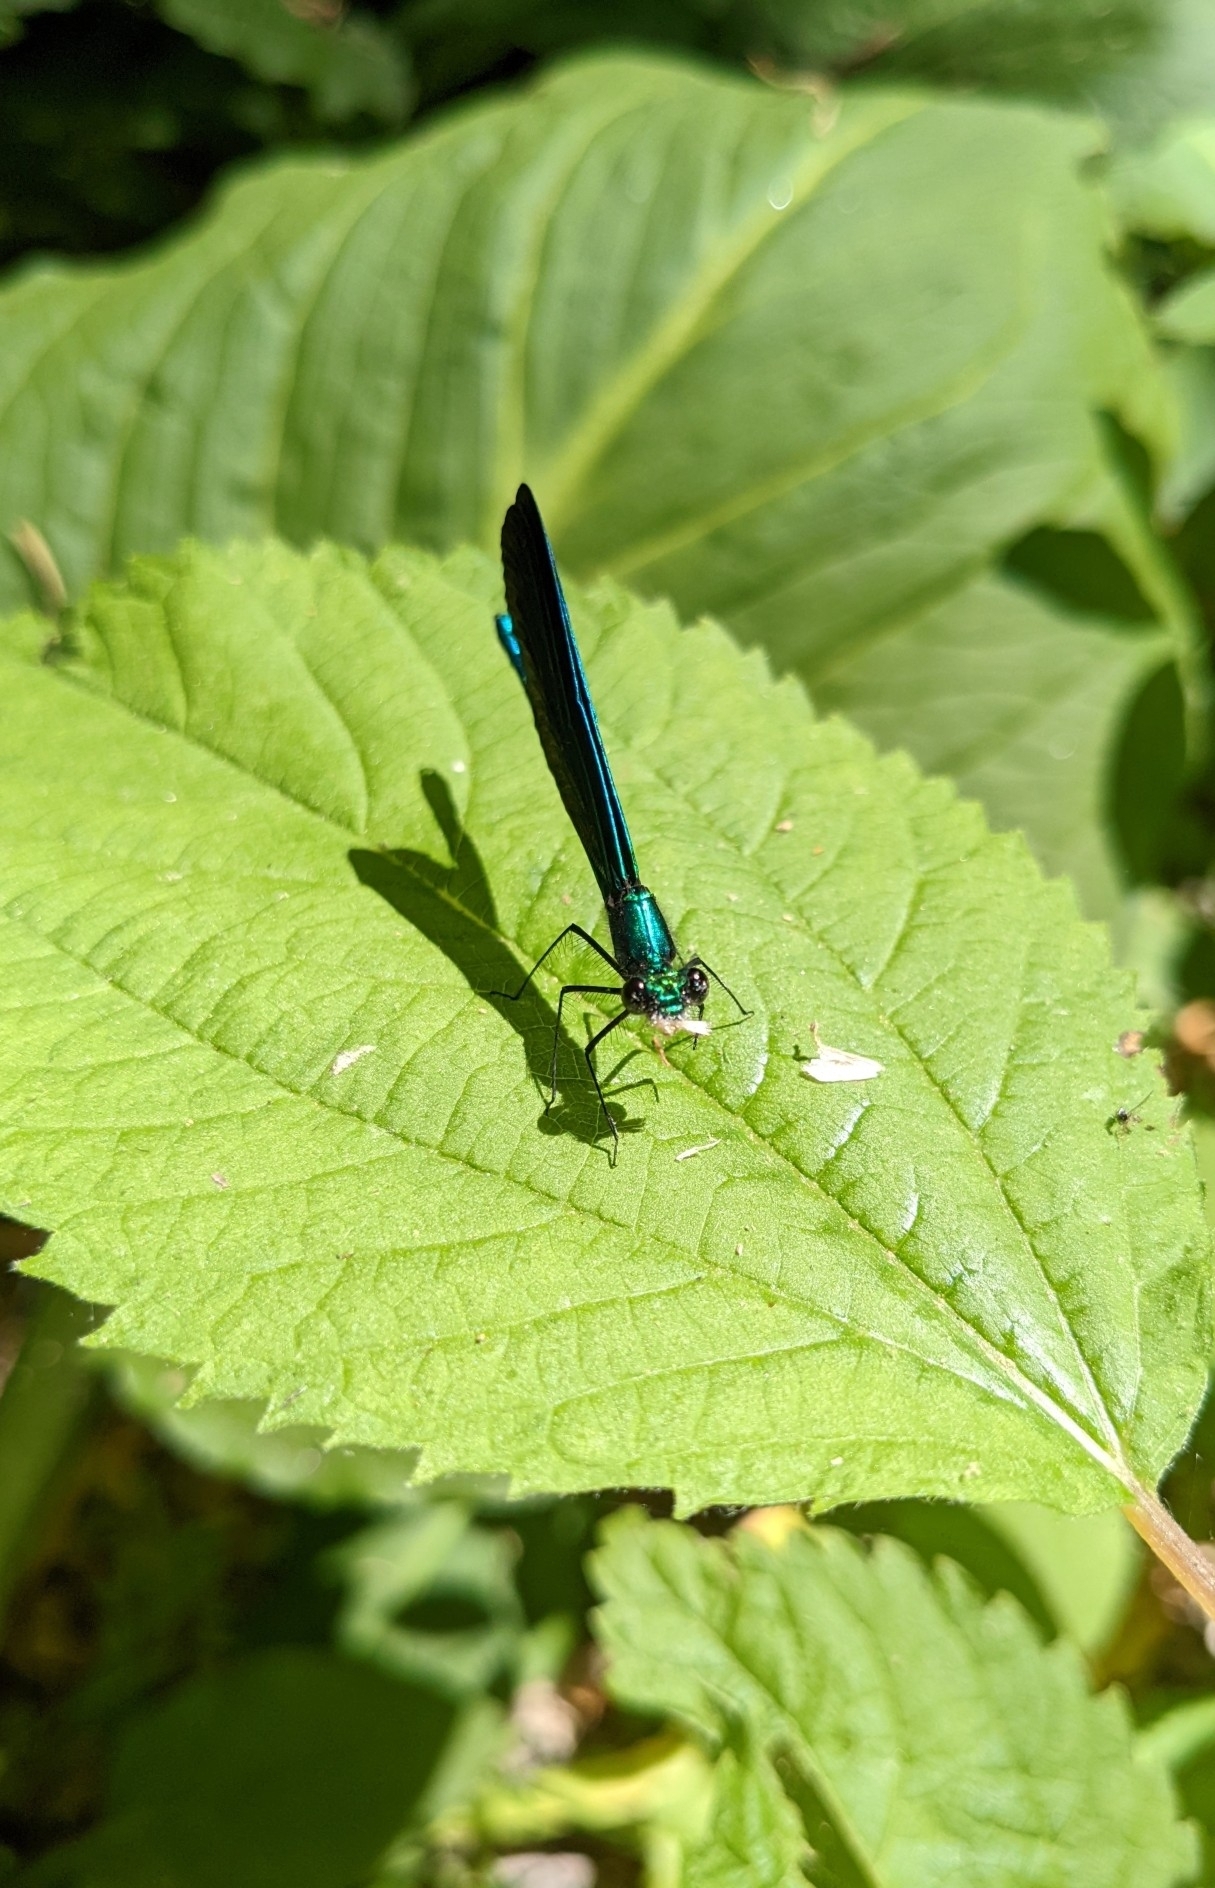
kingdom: Animalia
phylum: Arthropoda
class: Insecta
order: Odonata
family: Calopterygidae
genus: Calopteryx
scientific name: Calopteryx maculata
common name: Ebony jewelwing
